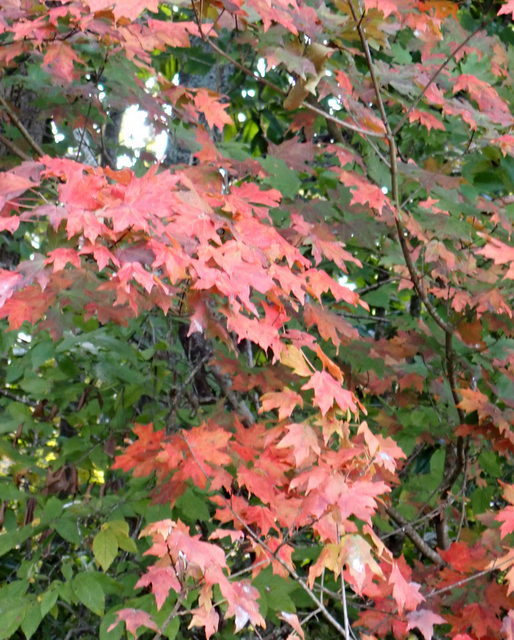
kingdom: Plantae
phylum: Tracheophyta
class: Magnoliopsida
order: Sapindales
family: Sapindaceae
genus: Acer
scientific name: Acer floridanum
